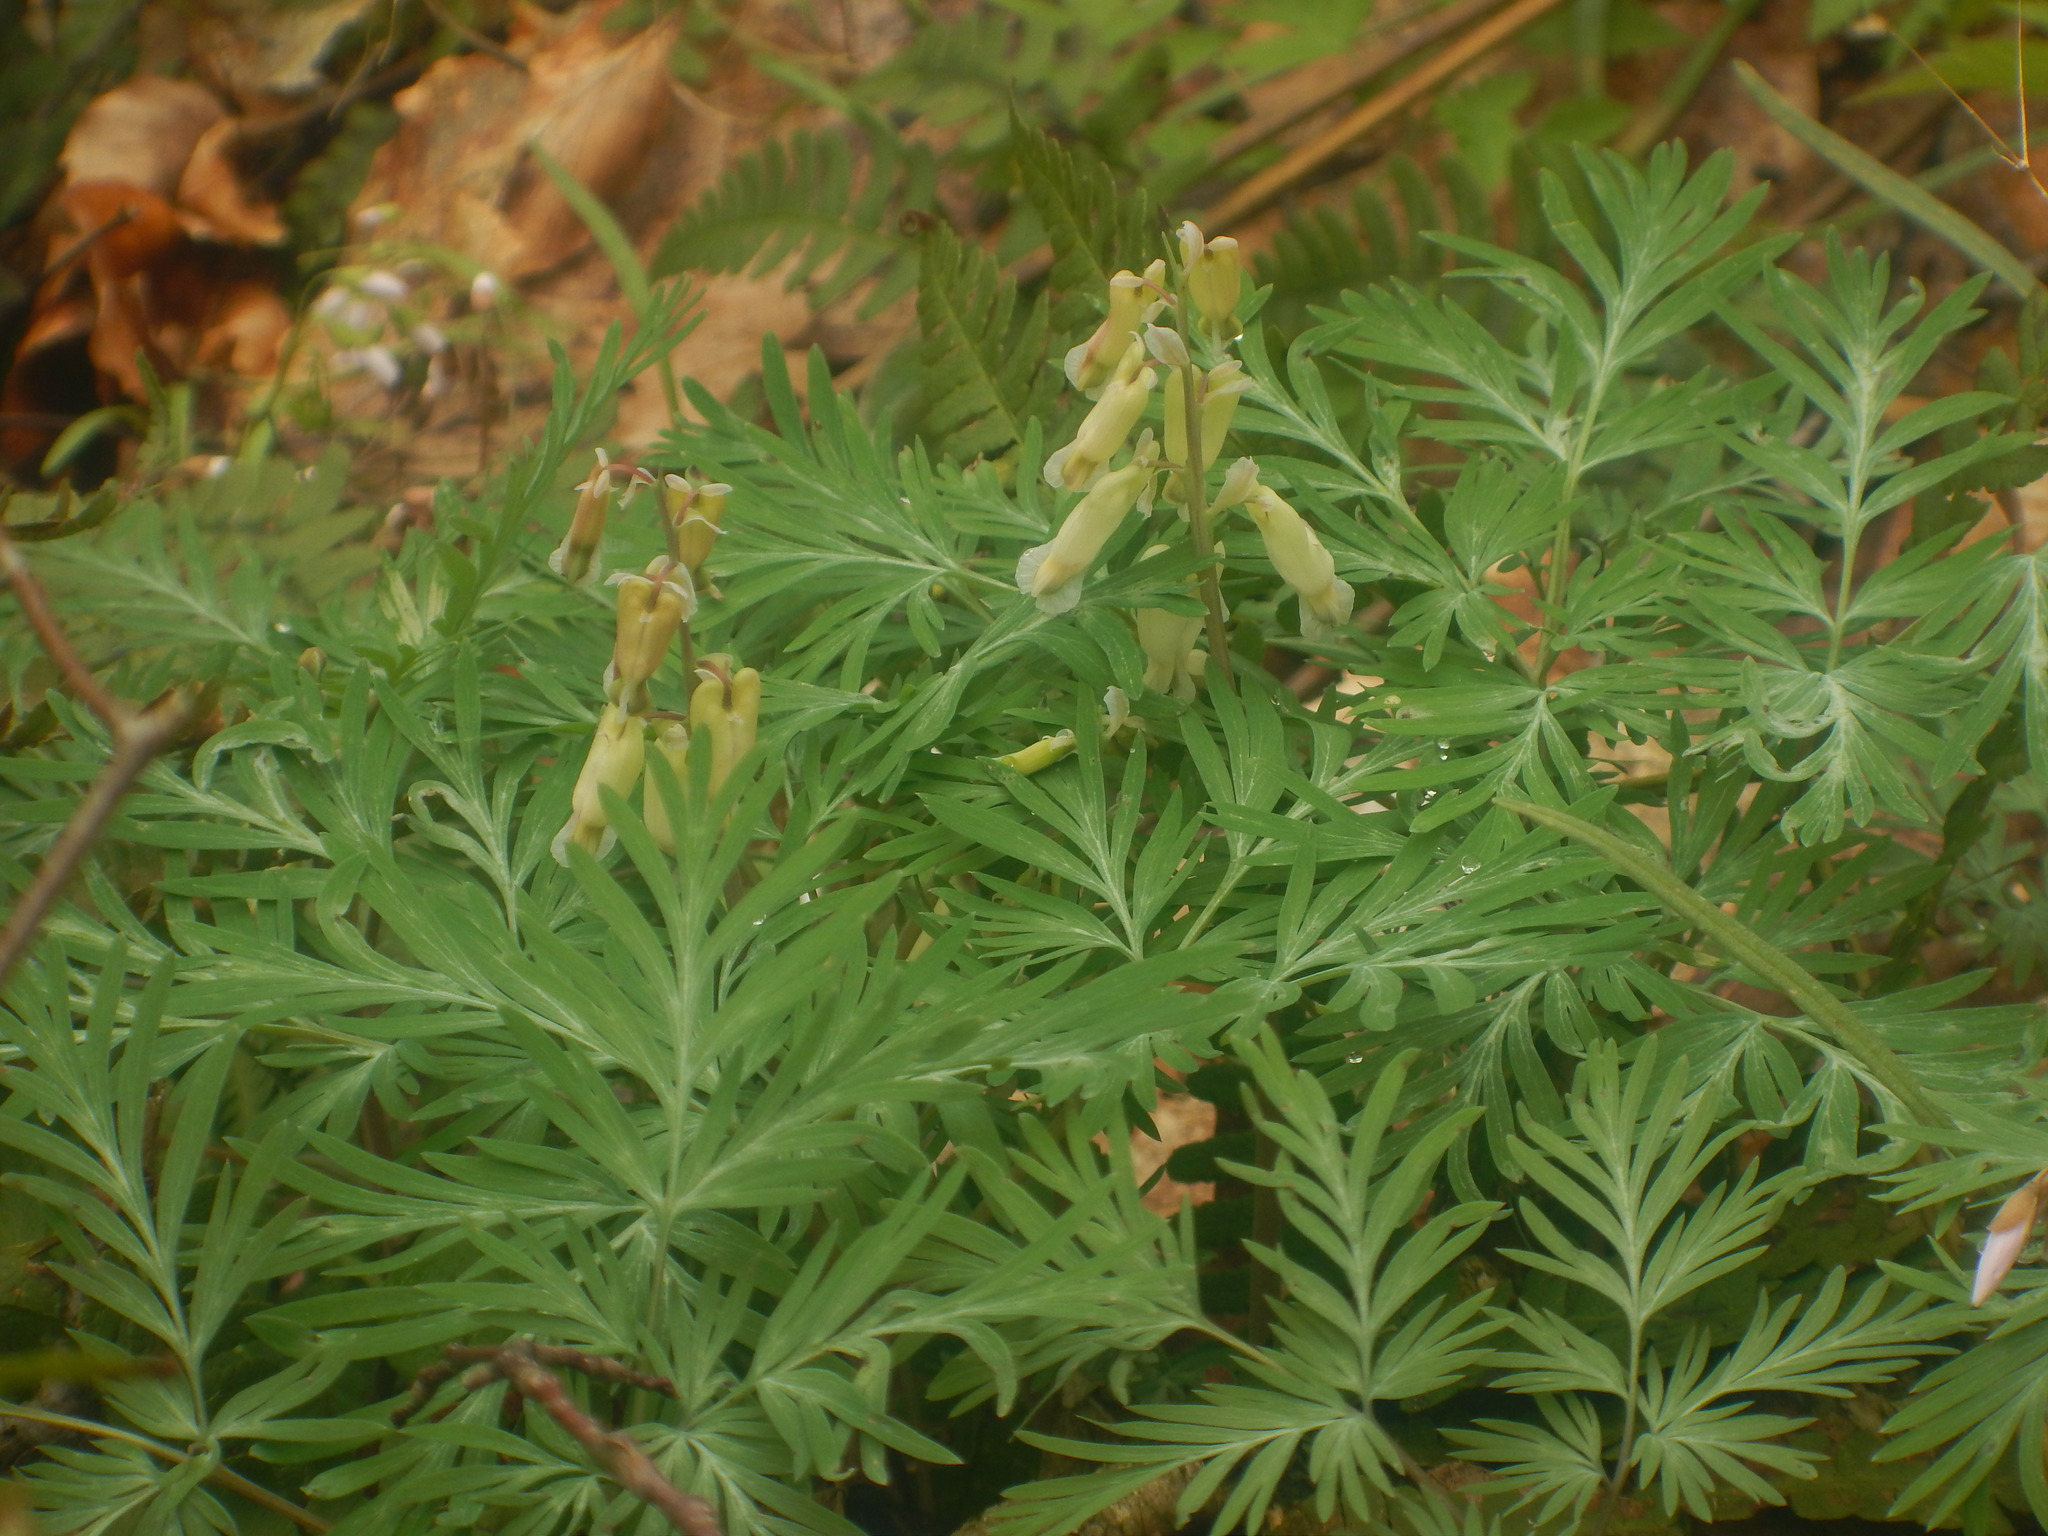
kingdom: Plantae
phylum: Tracheophyta
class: Magnoliopsida
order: Ranunculales
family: Papaveraceae
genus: Dicentra
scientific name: Dicentra canadensis
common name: Squirrel-corn
